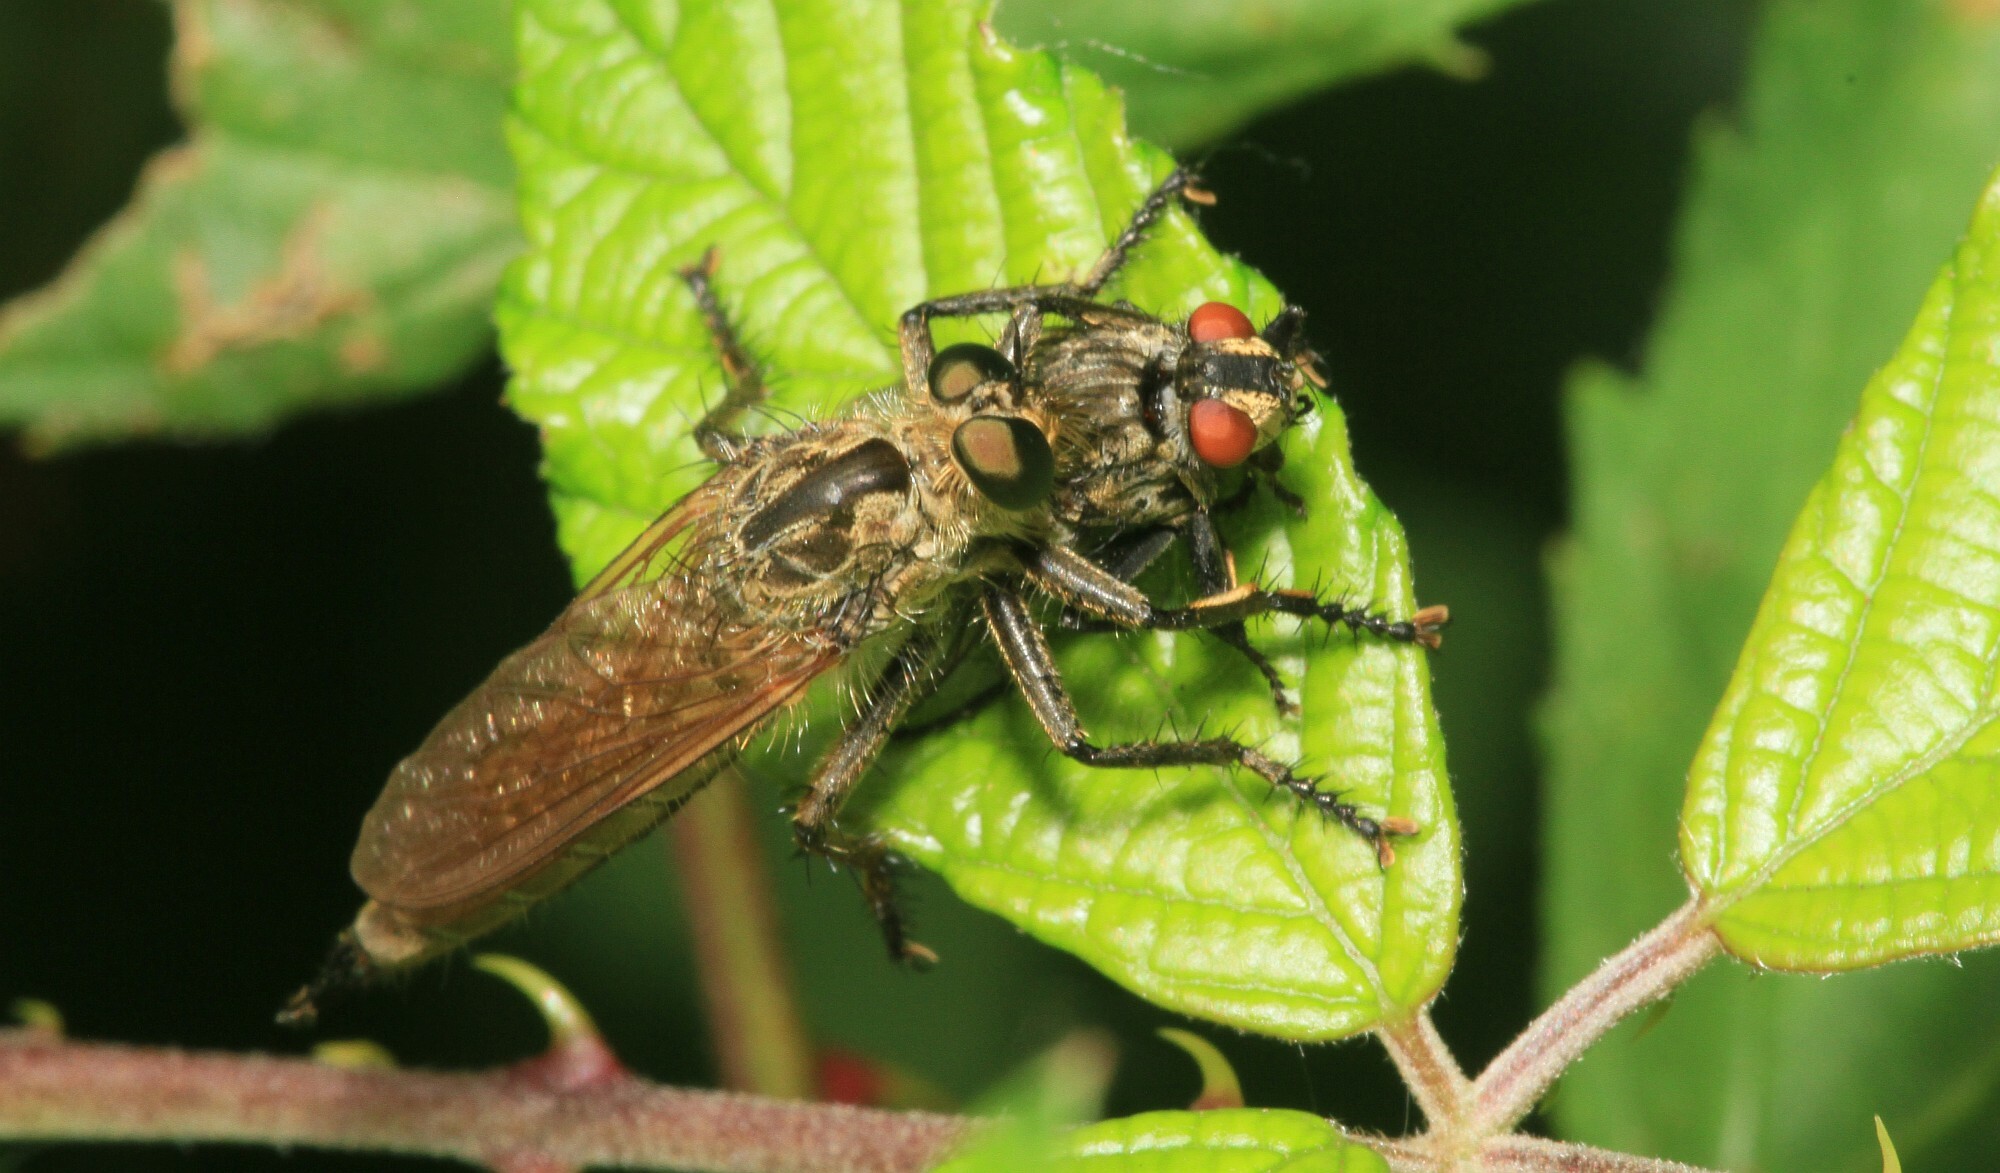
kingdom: Animalia
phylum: Arthropoda
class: Insecta
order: Diptera
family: Asilidae
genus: Eutolmus
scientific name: Eutolmus rufibarbis
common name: Golden-tabbed robberfly
